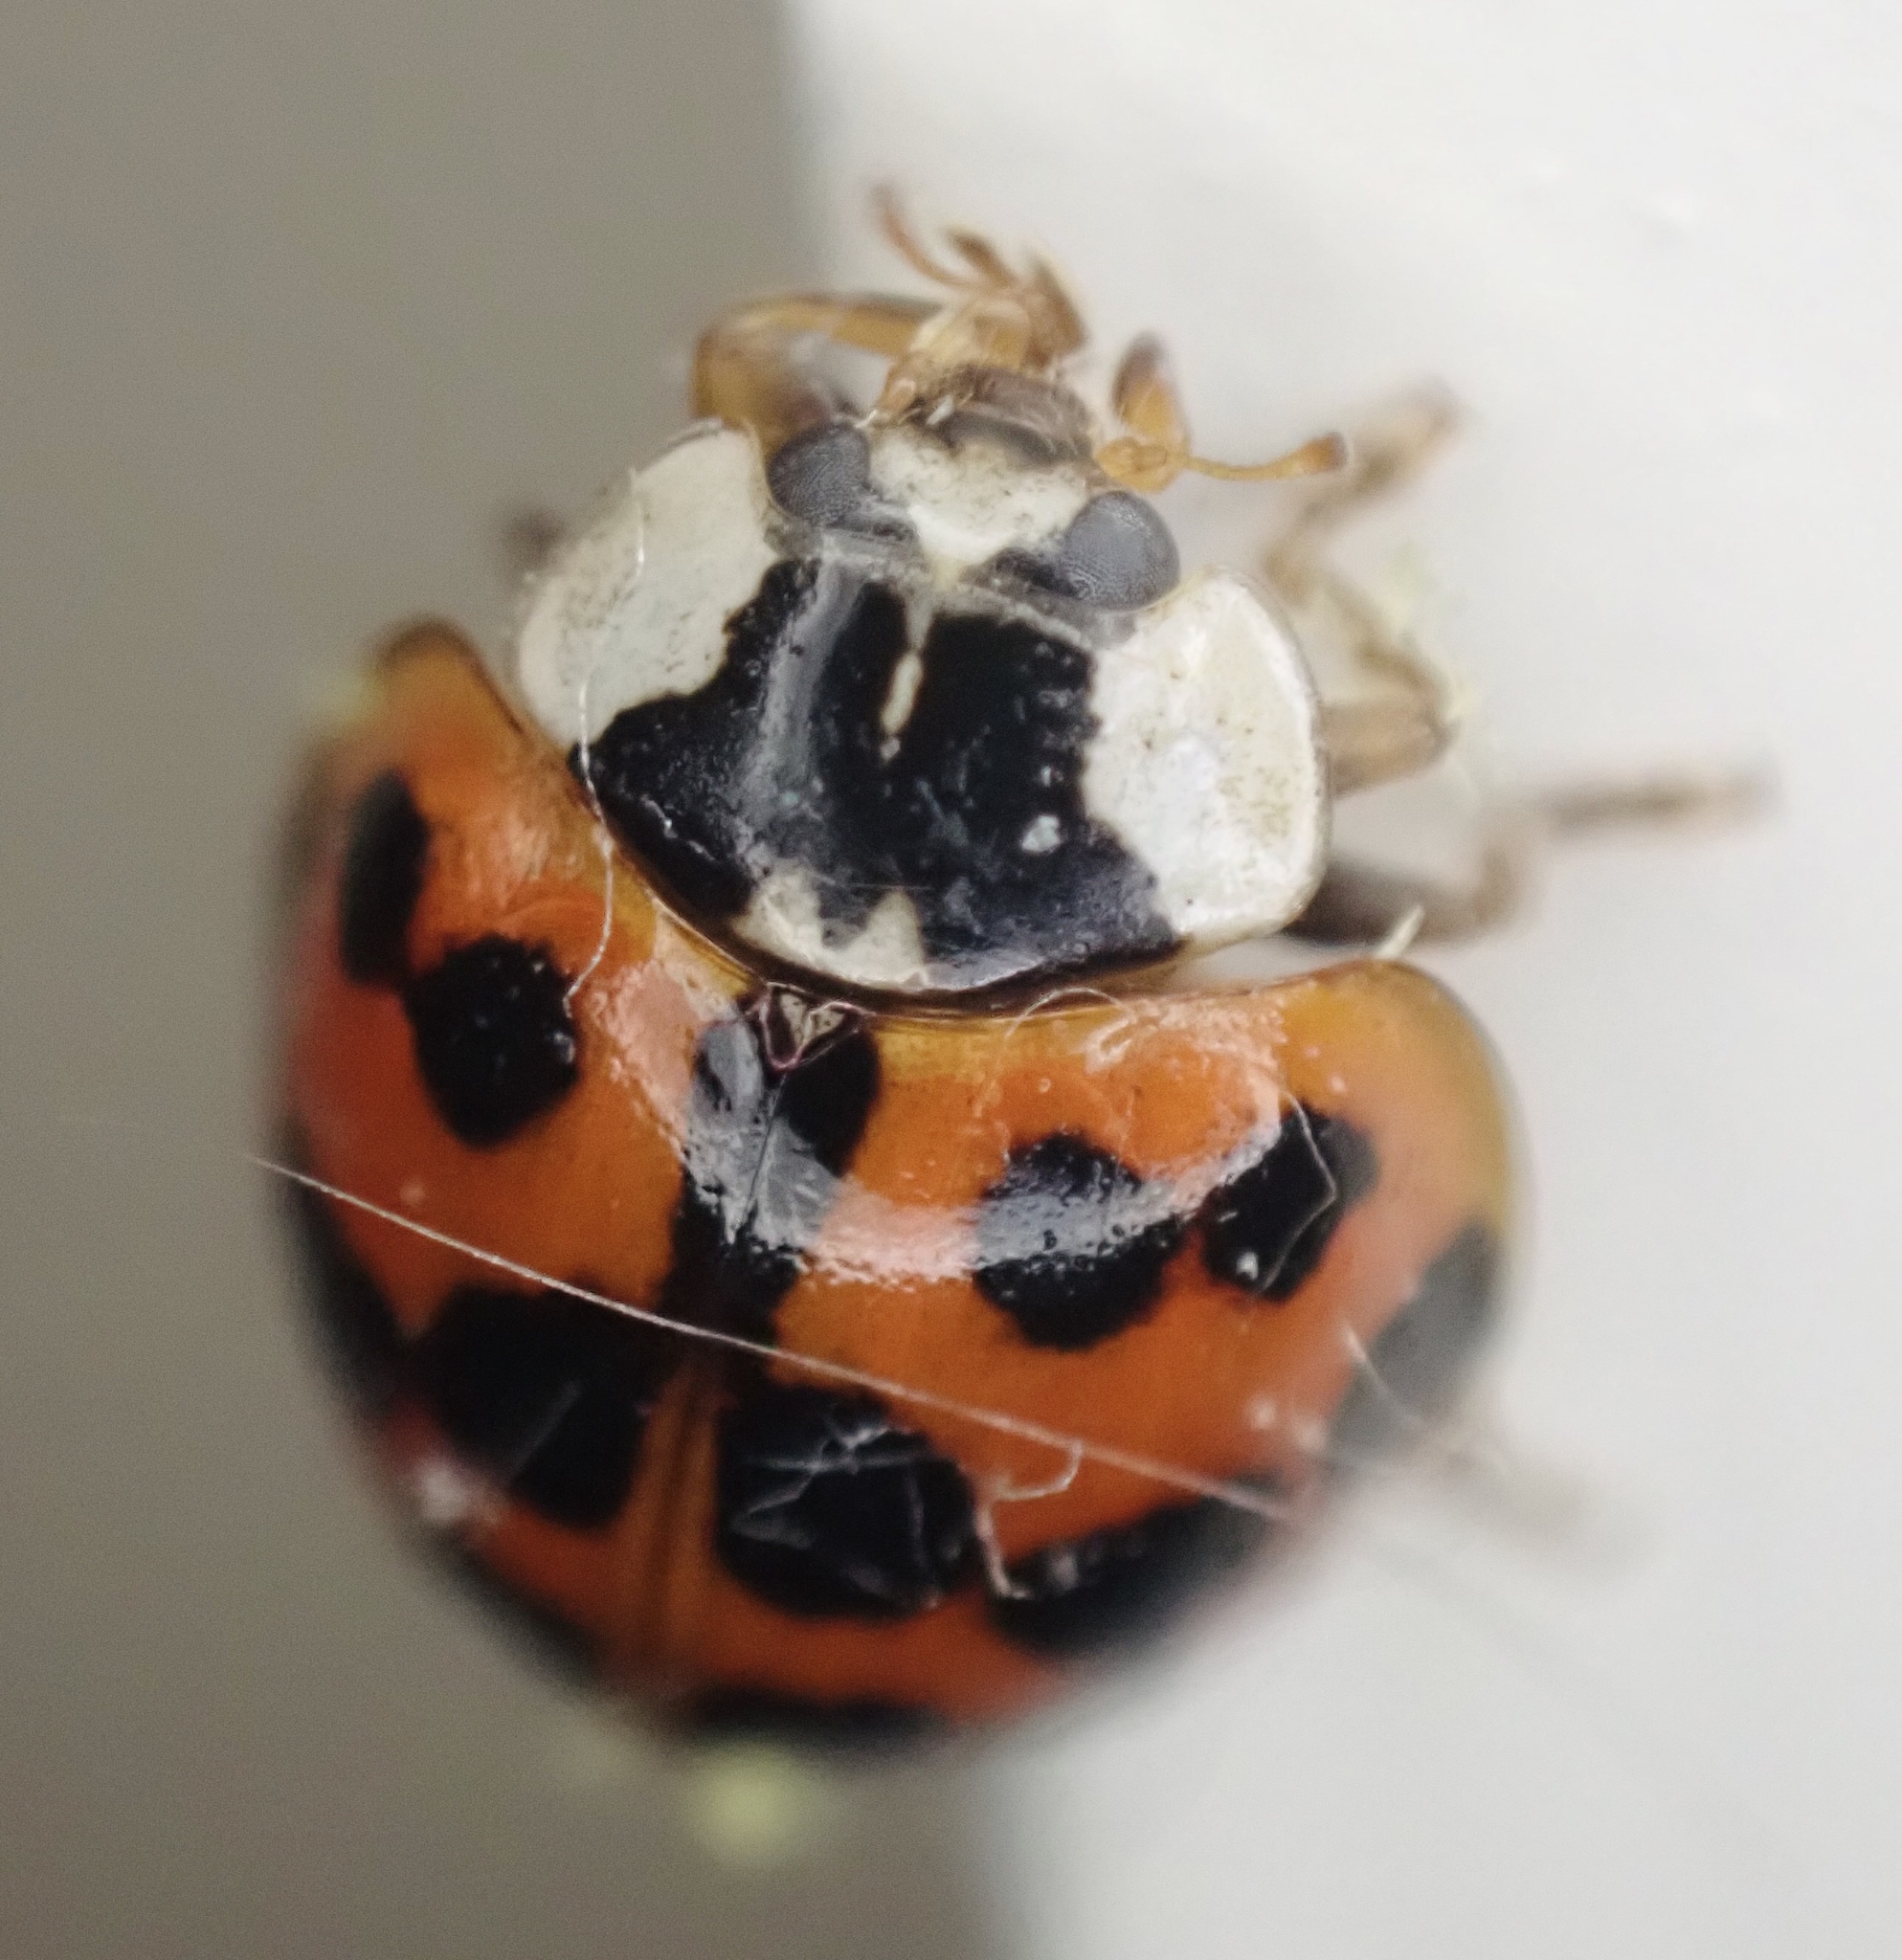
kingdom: Animalia
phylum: Arthropoda
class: Insecta
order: Coleoptera
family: Coccinellidae
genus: Harmonia
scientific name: Harmonia axyridis
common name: Harlequin ladybird
